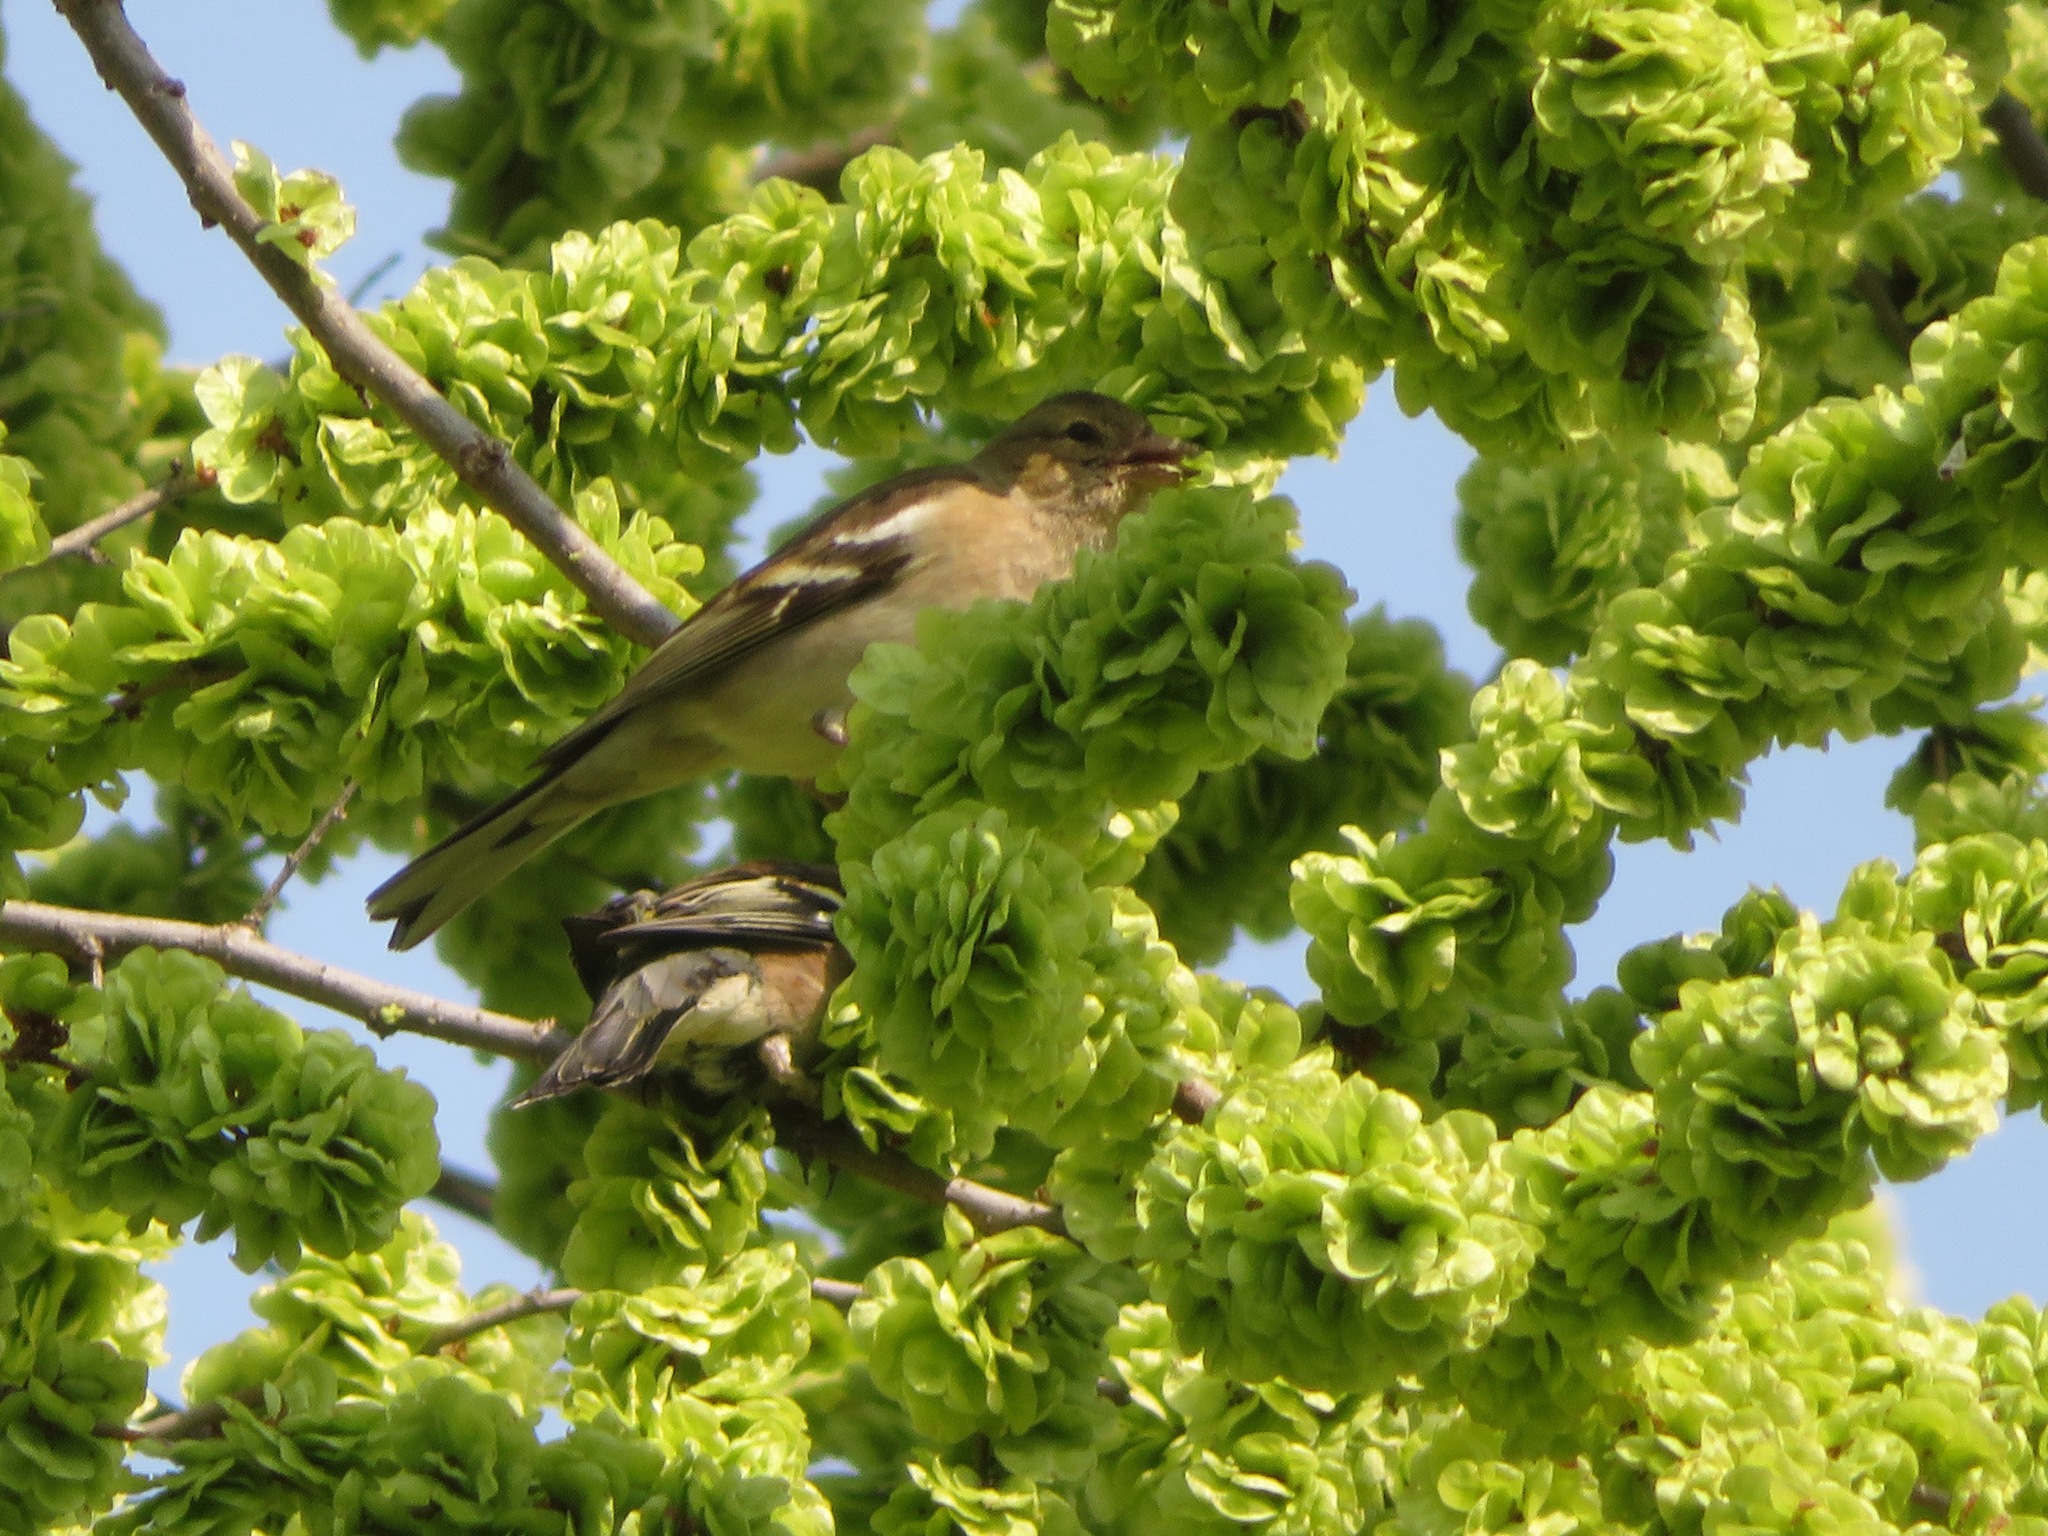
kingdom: Animalia
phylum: Chordata
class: Aves
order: Passeriformes
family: Fringillidae
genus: Fringilla
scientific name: Fringilla coelebs
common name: Common chaffinch
